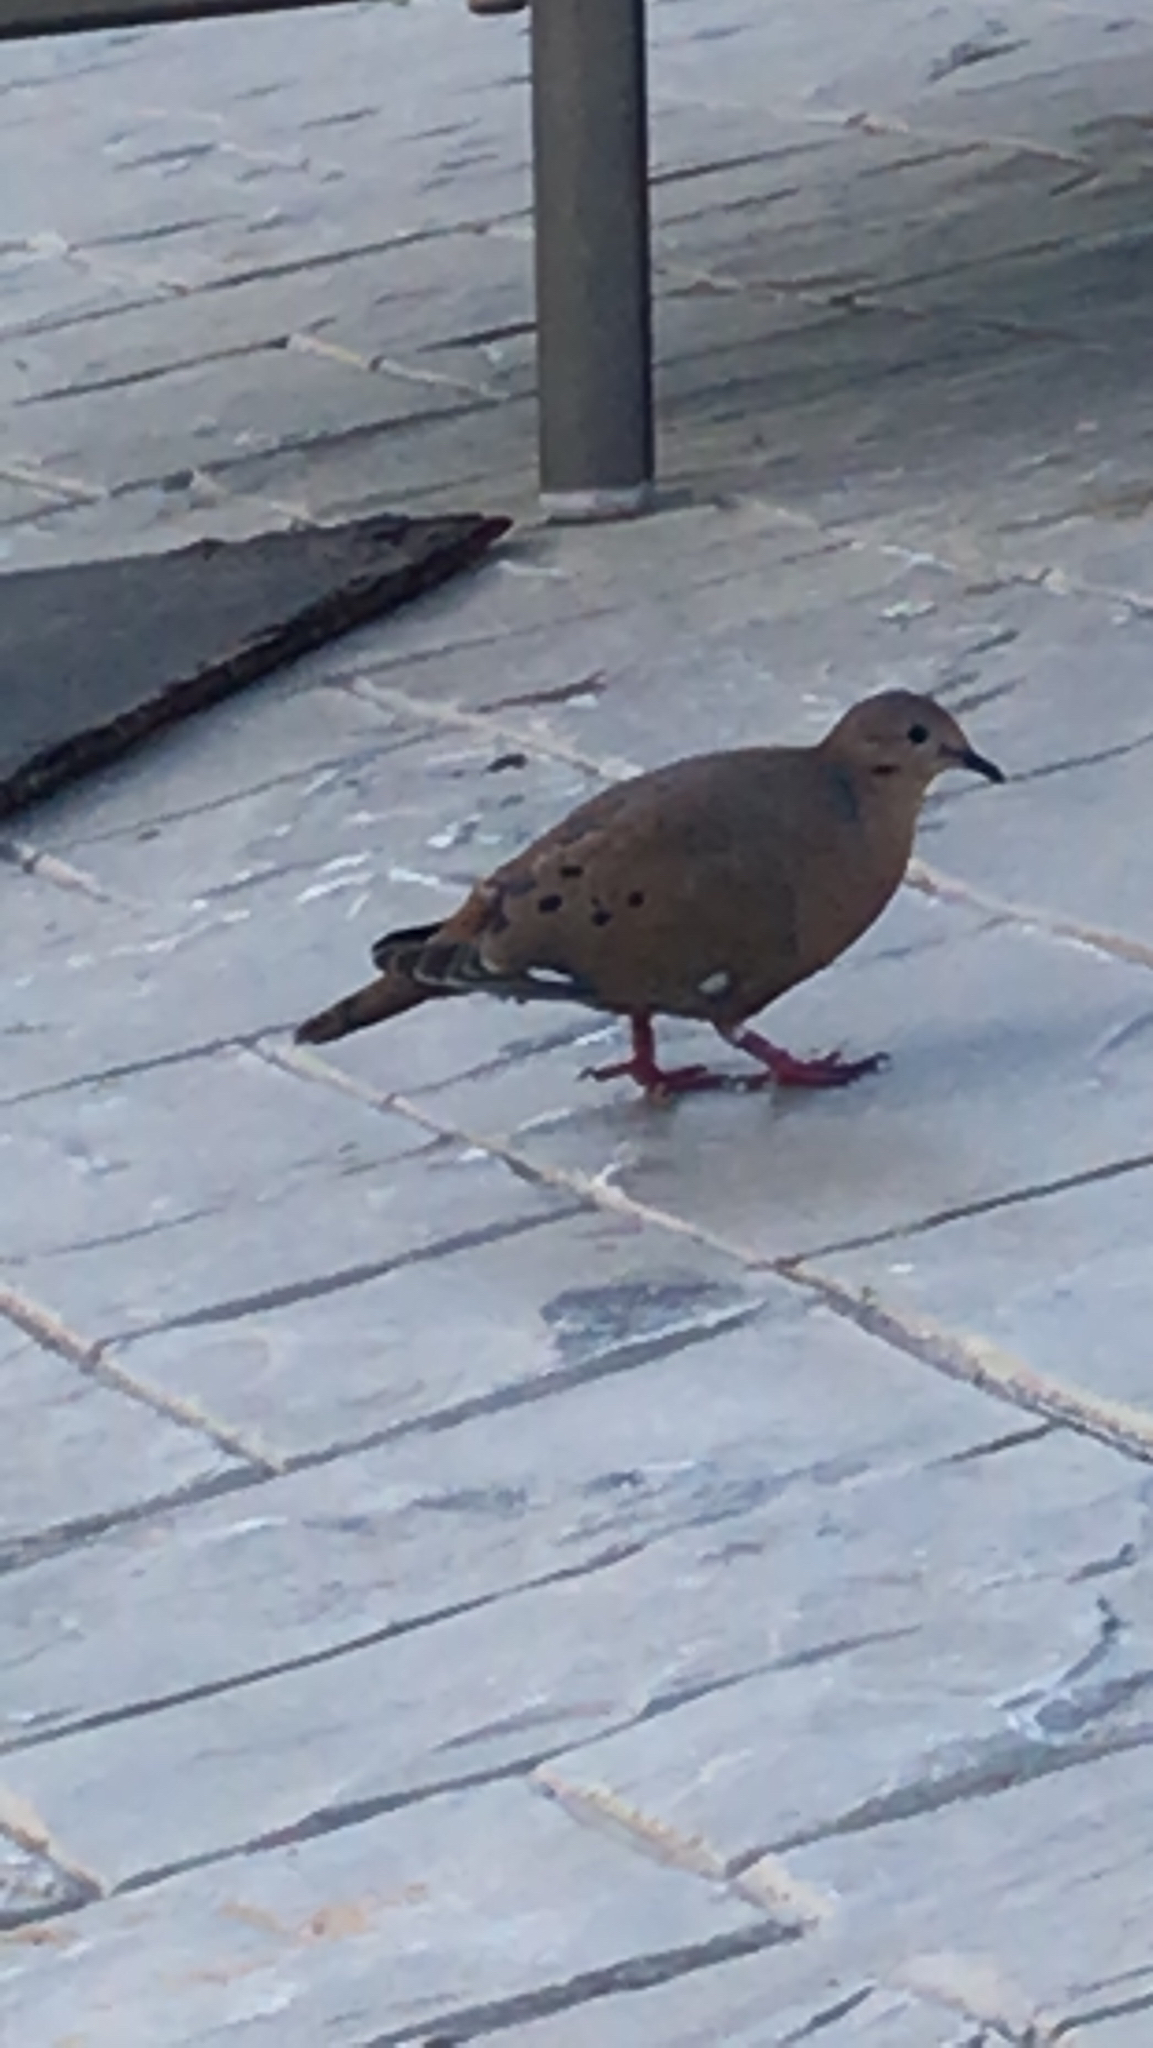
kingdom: Animalia
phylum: Chordata
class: Aves
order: Columbiformes
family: Columbidae
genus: Zenaida
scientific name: Zenaida aurita
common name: Zenaida dove
